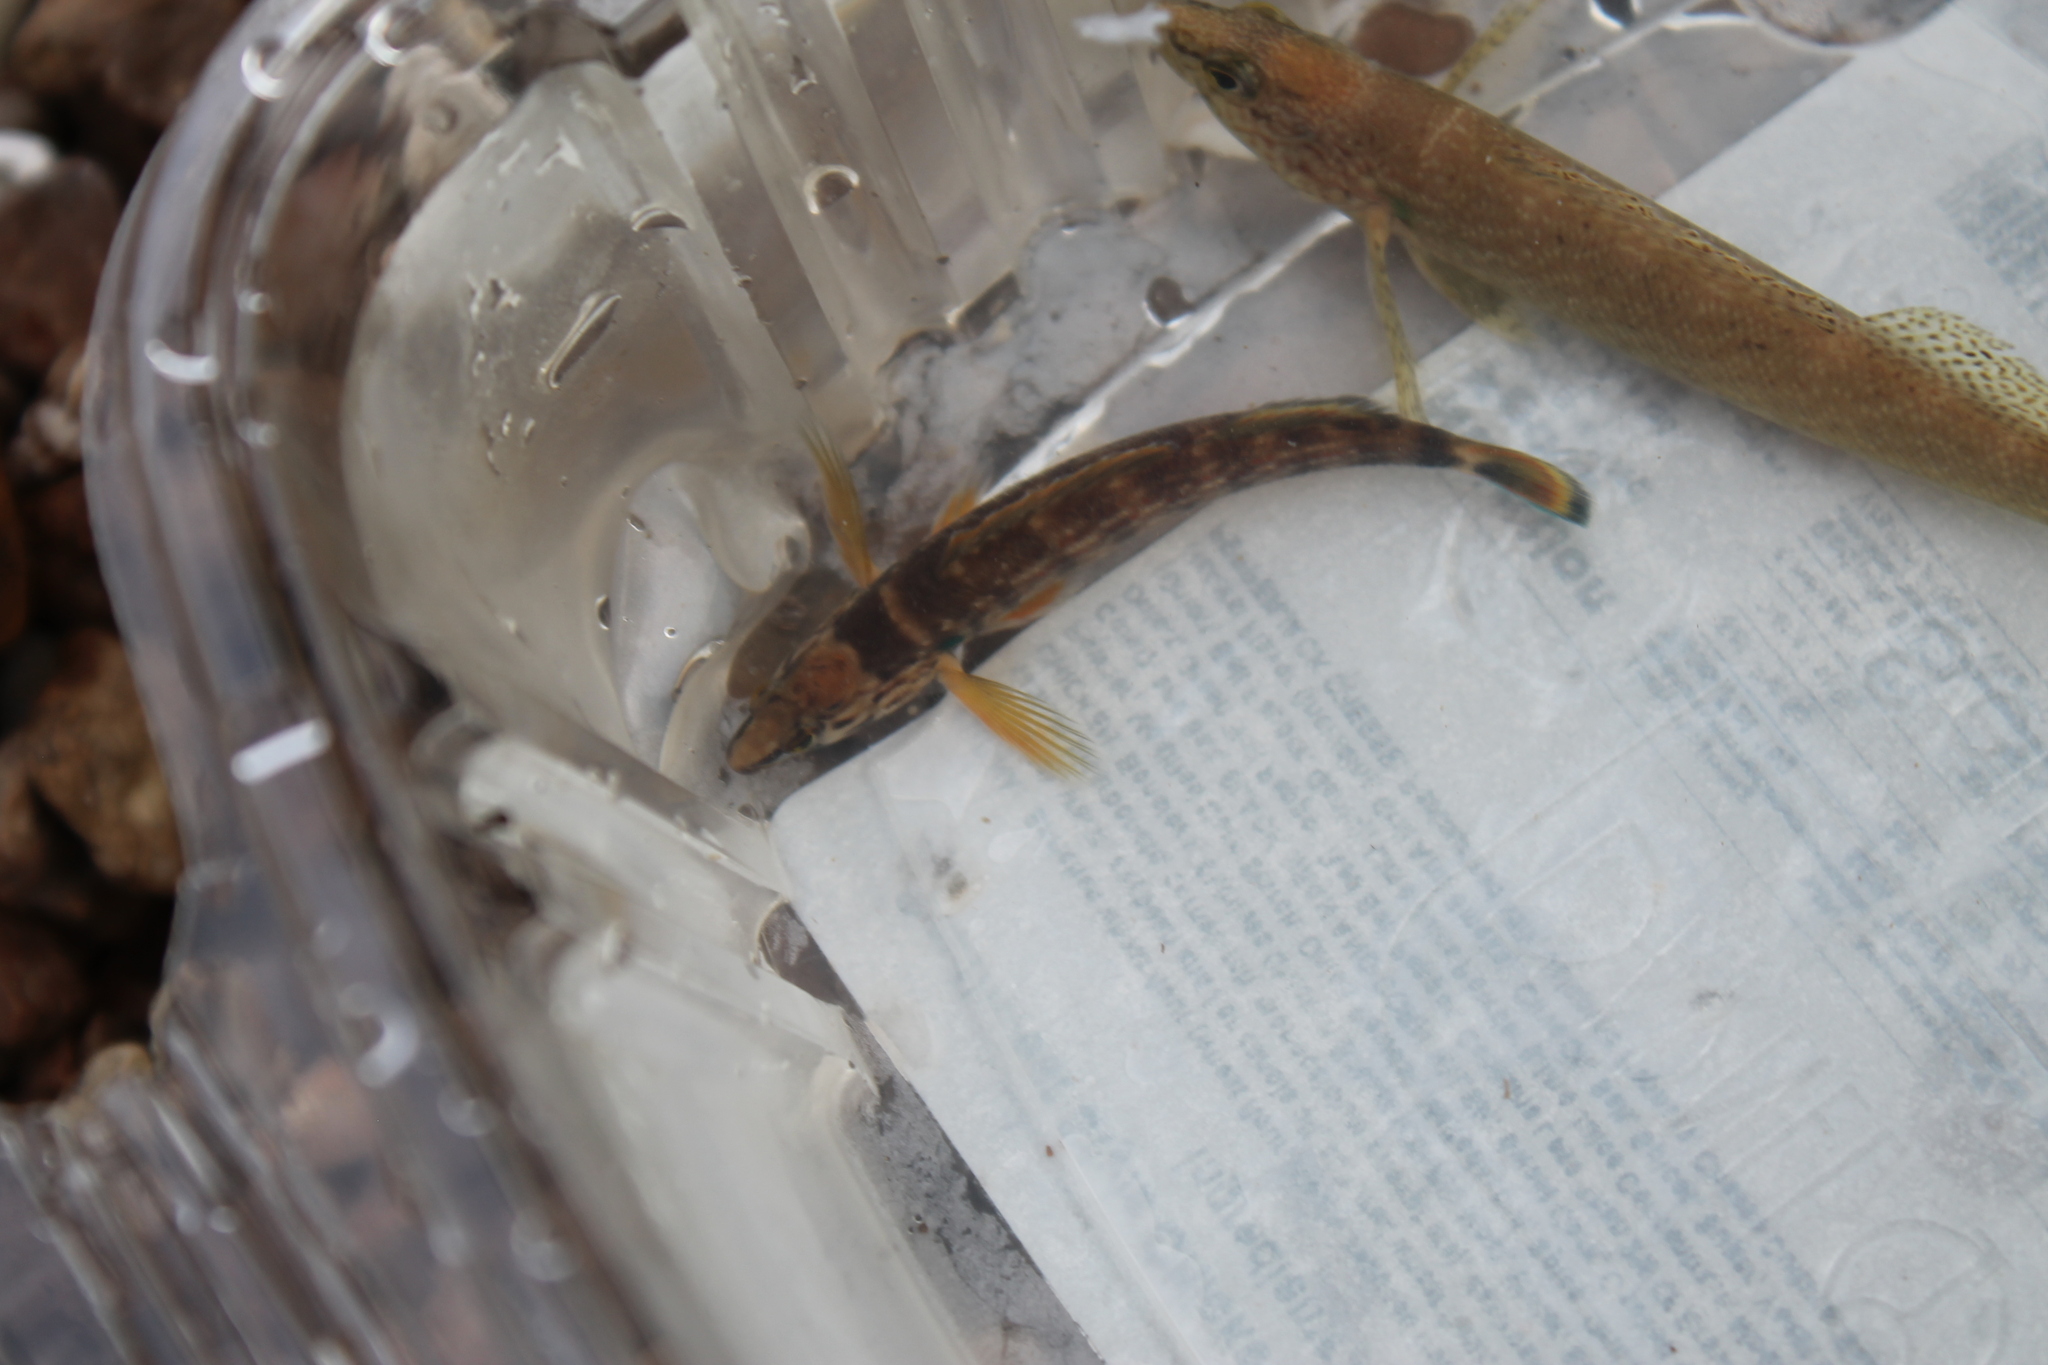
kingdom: Animalia
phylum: Chordata
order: Perciformes
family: Percidae
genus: Etheostoma
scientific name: Etheostoma rufilineatum
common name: Redline darter
